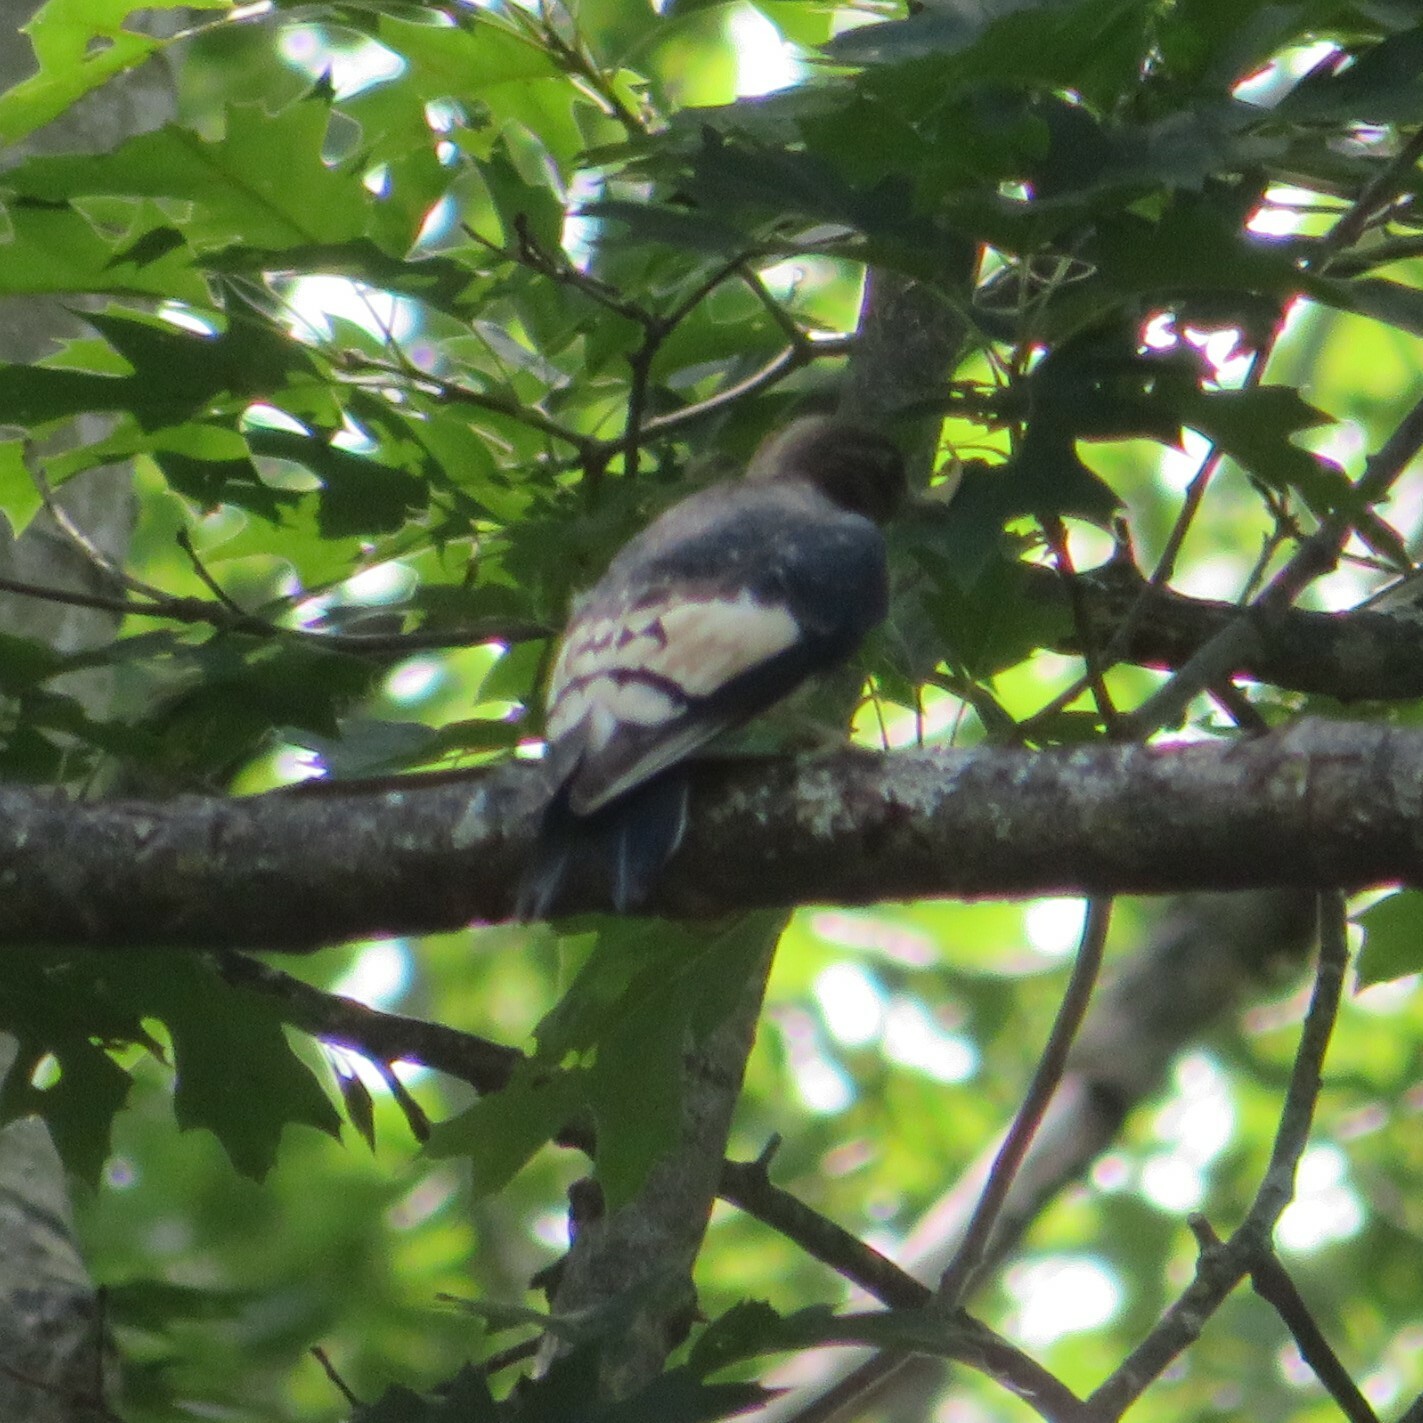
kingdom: Animalia
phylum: Chordata
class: Aves
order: Piciformes
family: Picidae
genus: Melanerpes
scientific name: Melanerpes erythrocephalus
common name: Red-headed woodpecker
